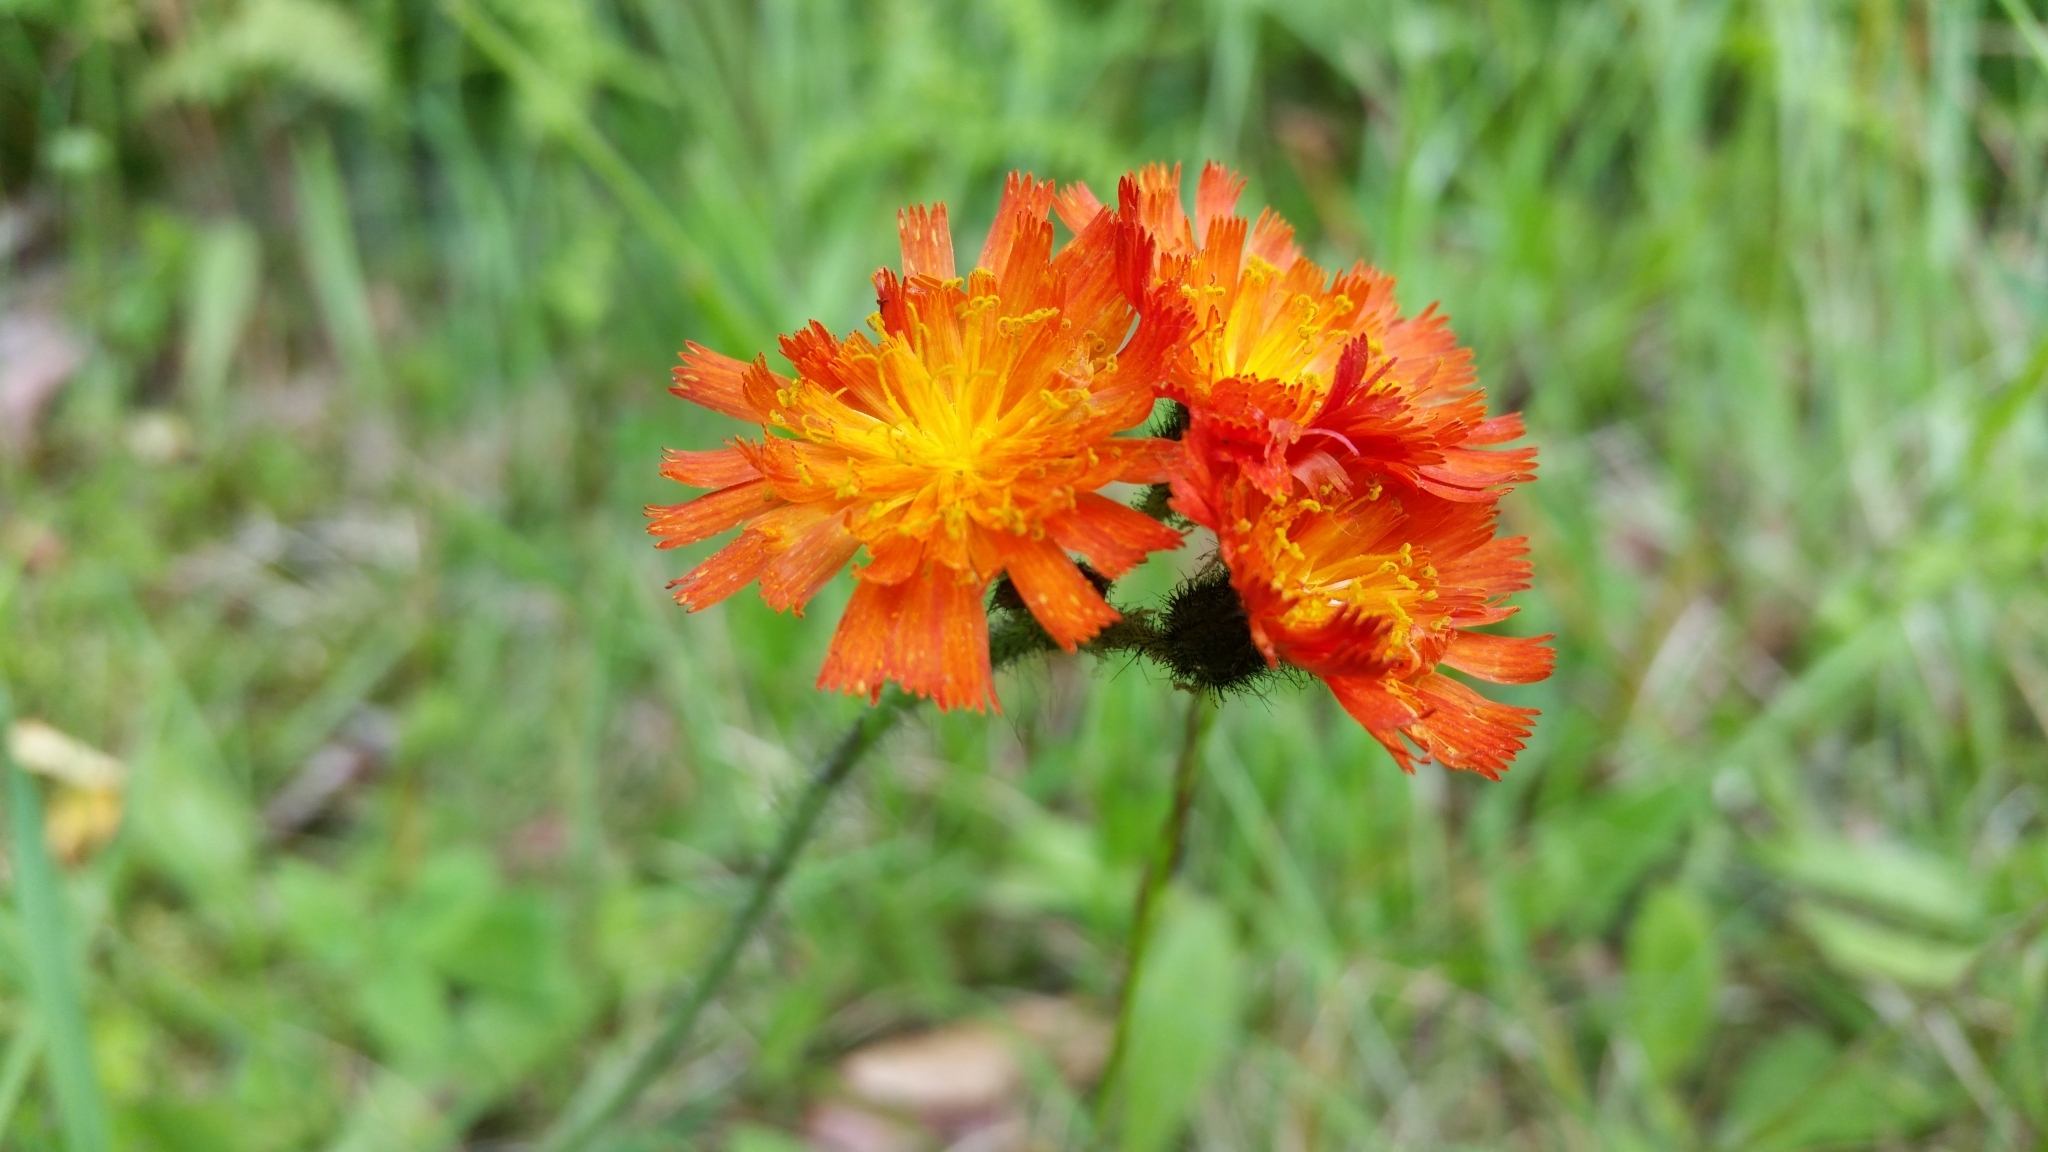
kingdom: Plantae
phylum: Tracheophyta
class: Magnoliopsida
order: Asterales
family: Asteraceae
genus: Pilosella
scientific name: Pilosella aurantiaca
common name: Fox-and-cubs
